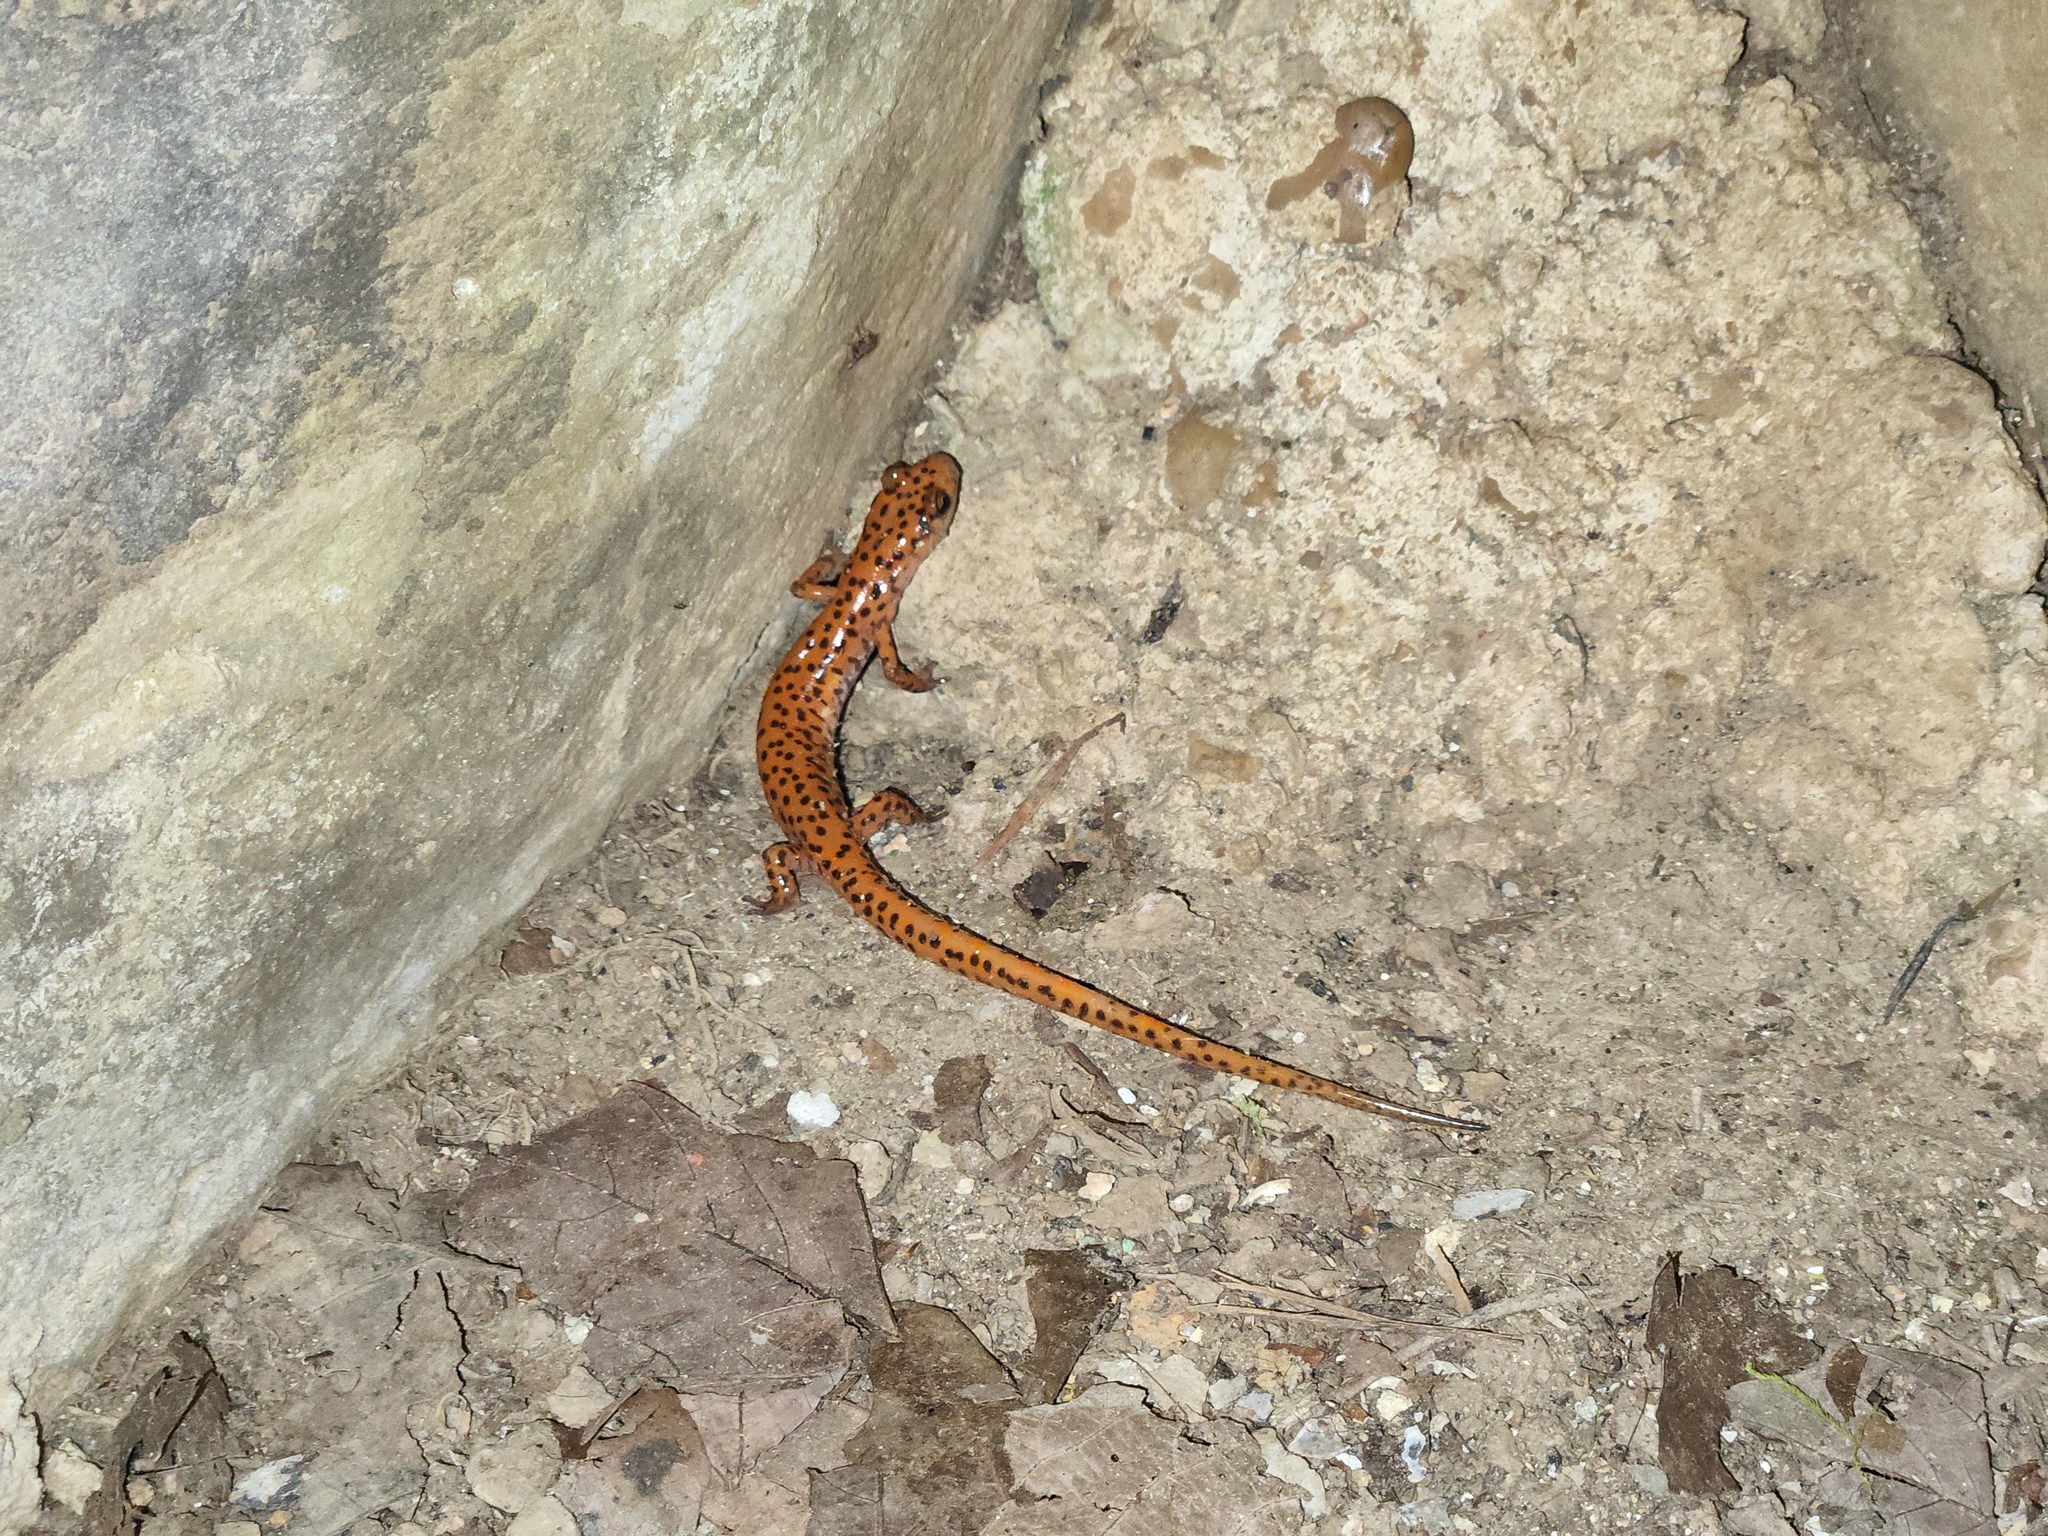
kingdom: Animalia
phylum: Chordata
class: Amphibia
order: Caudata
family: Plethodontidae
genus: Eurycea
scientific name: Eurycea lucifuga
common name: Cave salamander
